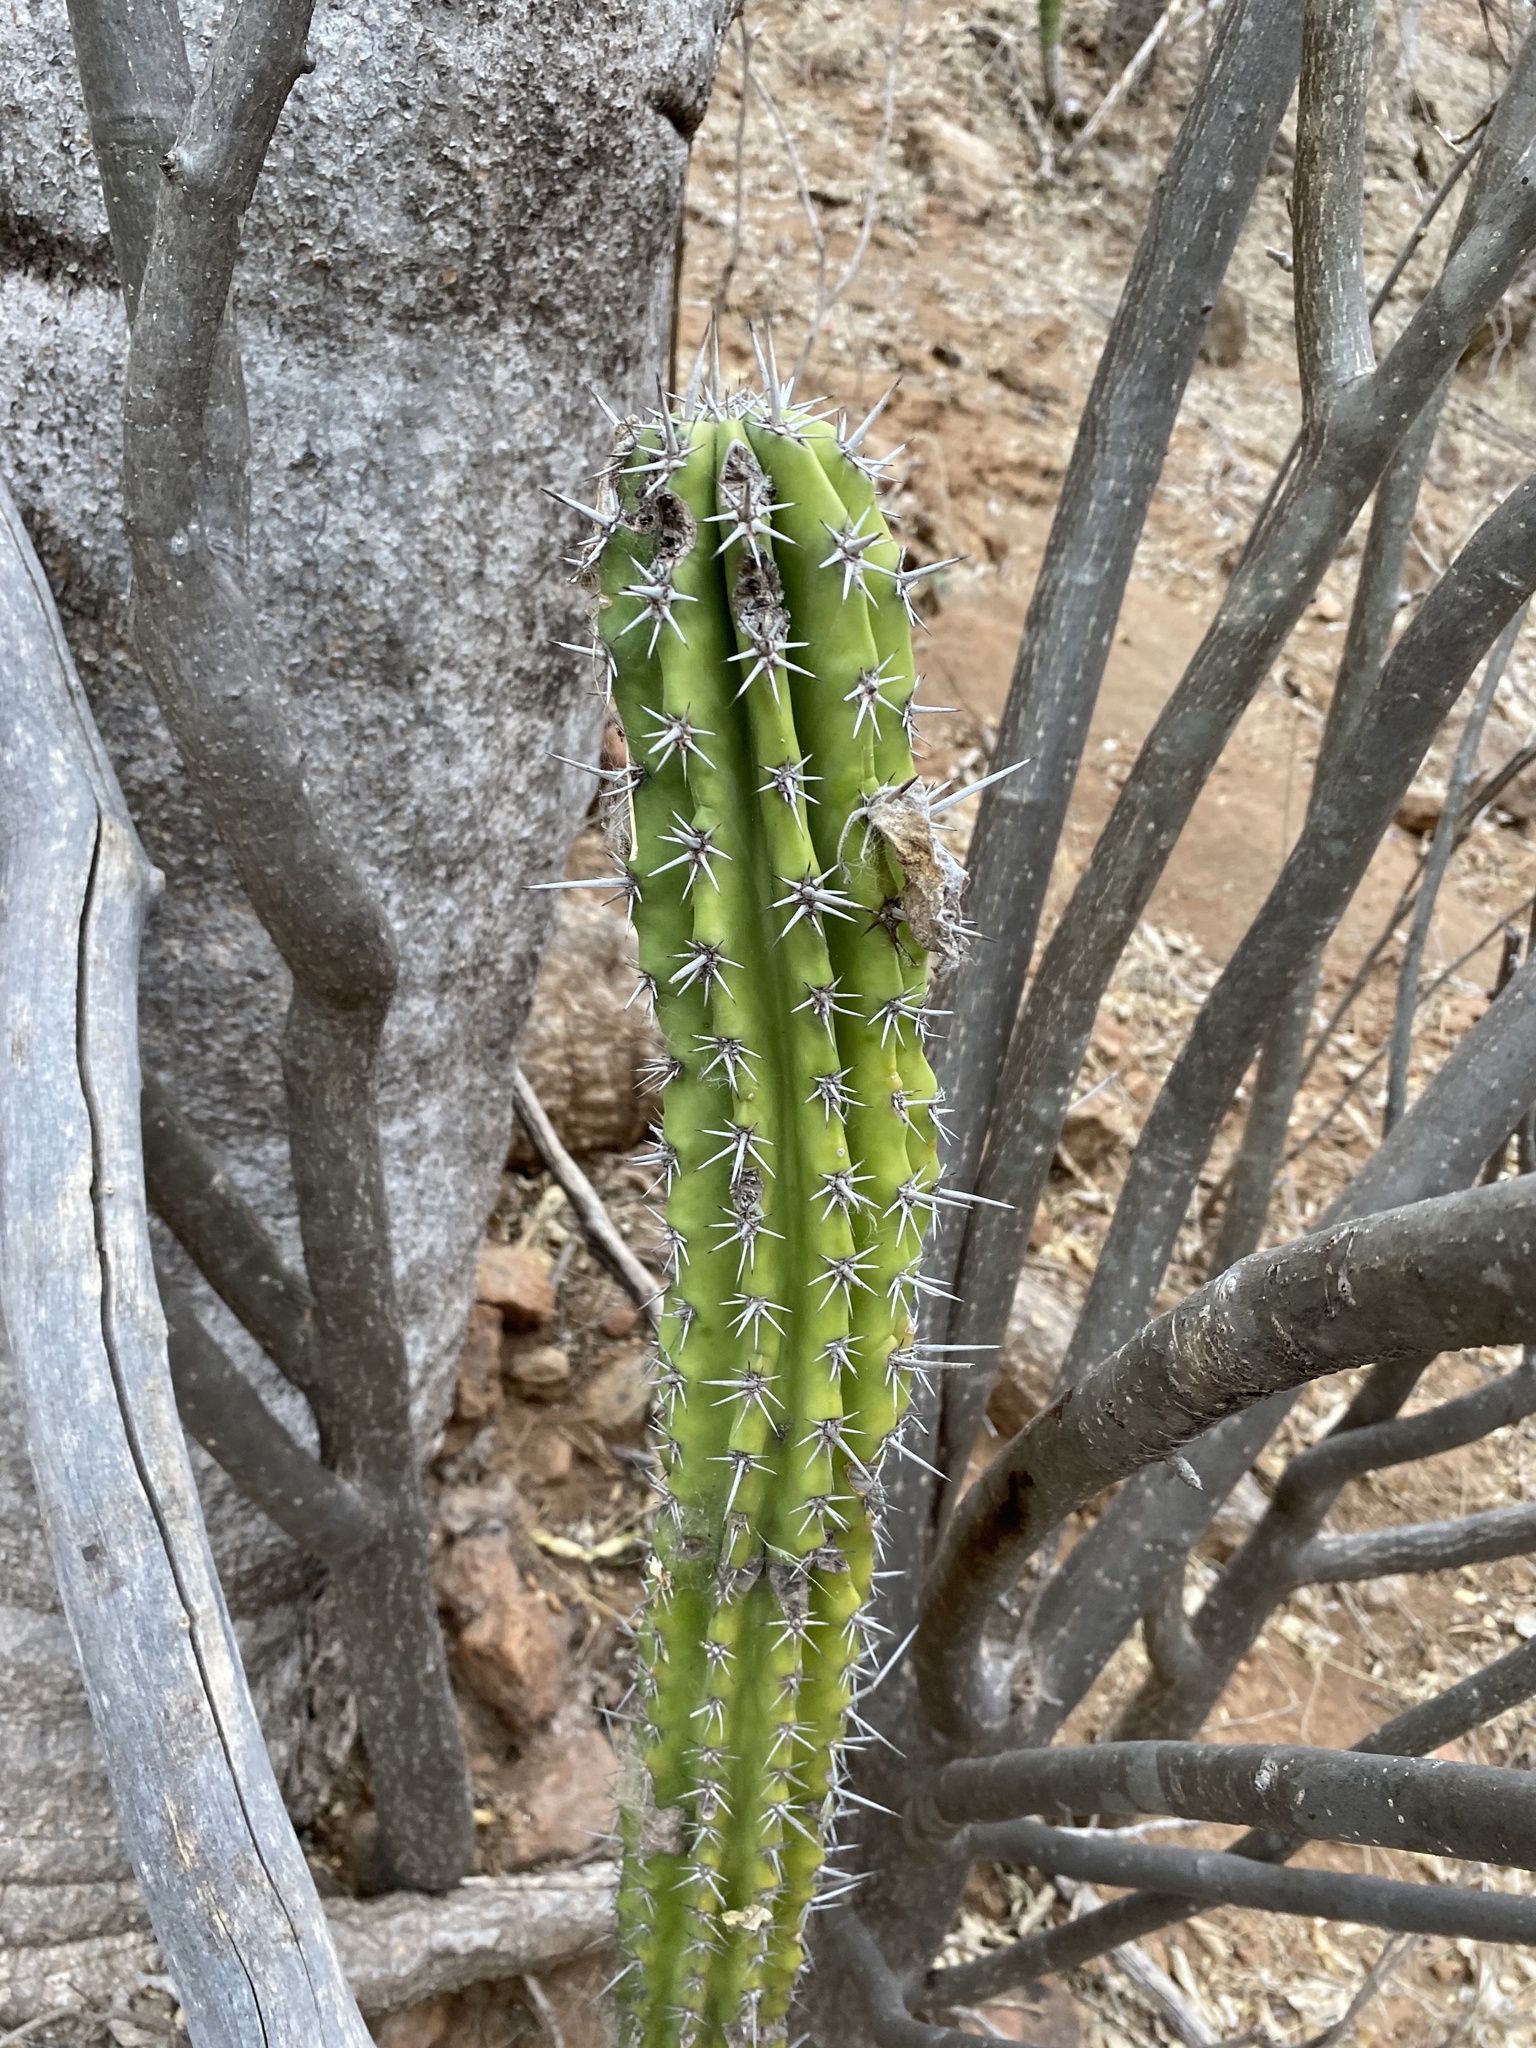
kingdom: Plantae
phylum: Tracheophyta
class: Magnoliopsida
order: Caryophyllales
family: Cactaceae
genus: Pachycereus
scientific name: Pachycereus pecten-aboriginum
